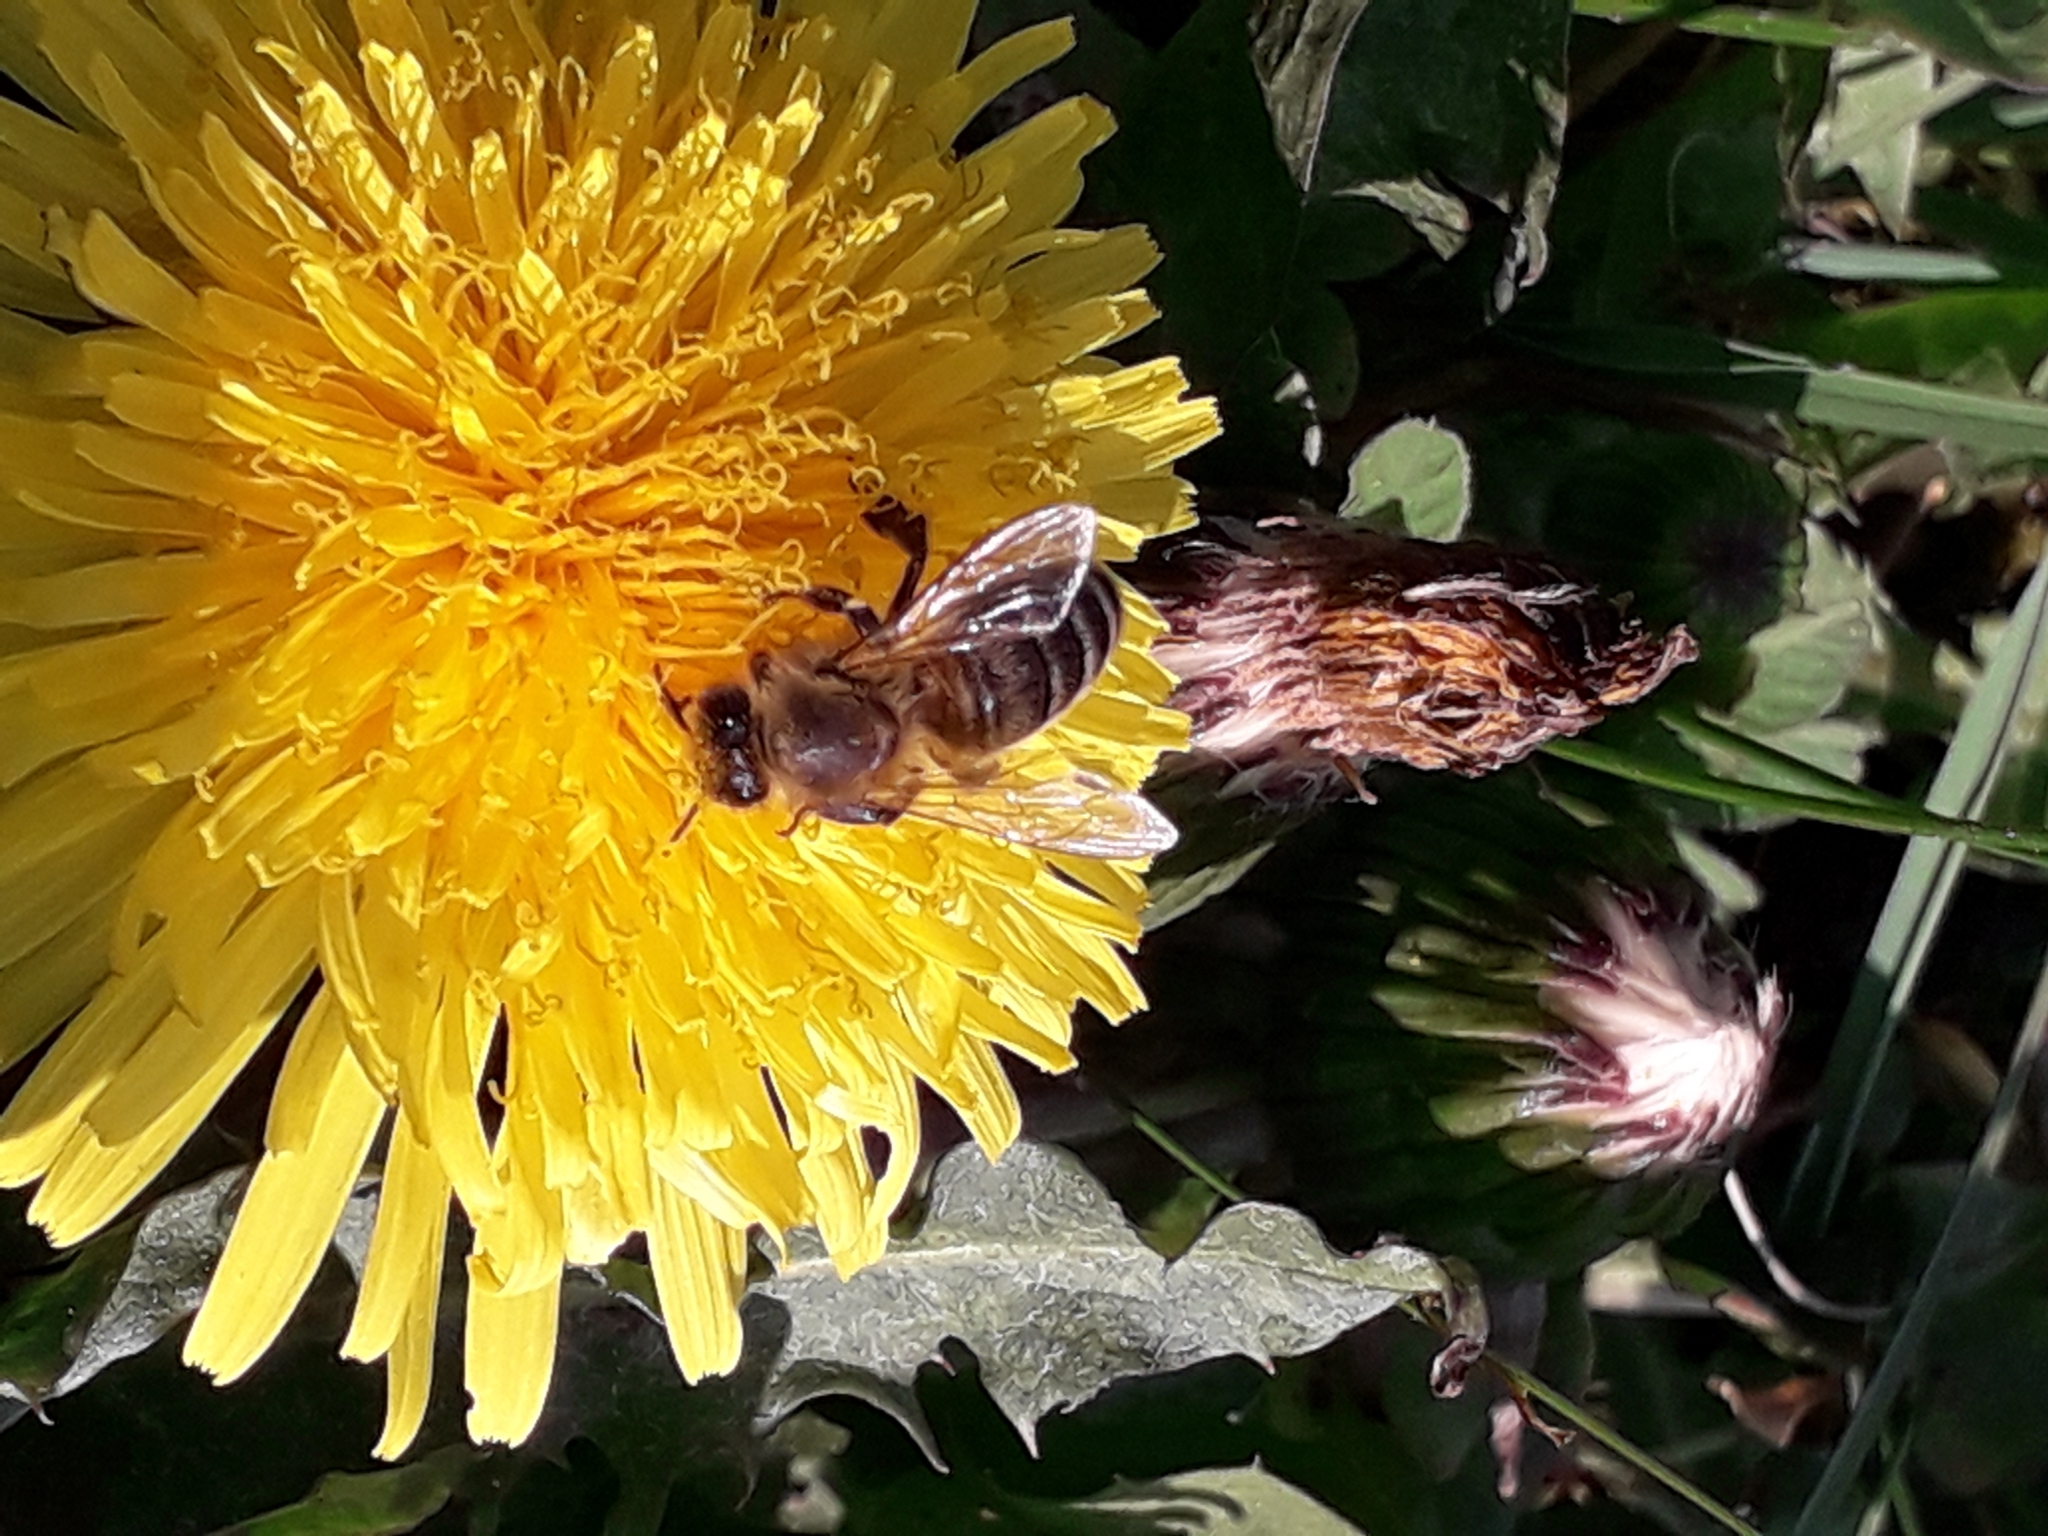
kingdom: Animalia
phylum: Arthropoda
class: Insecta
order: Hymenoptera
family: Apidae
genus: Apis
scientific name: Apis mellifera
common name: Honey bee
